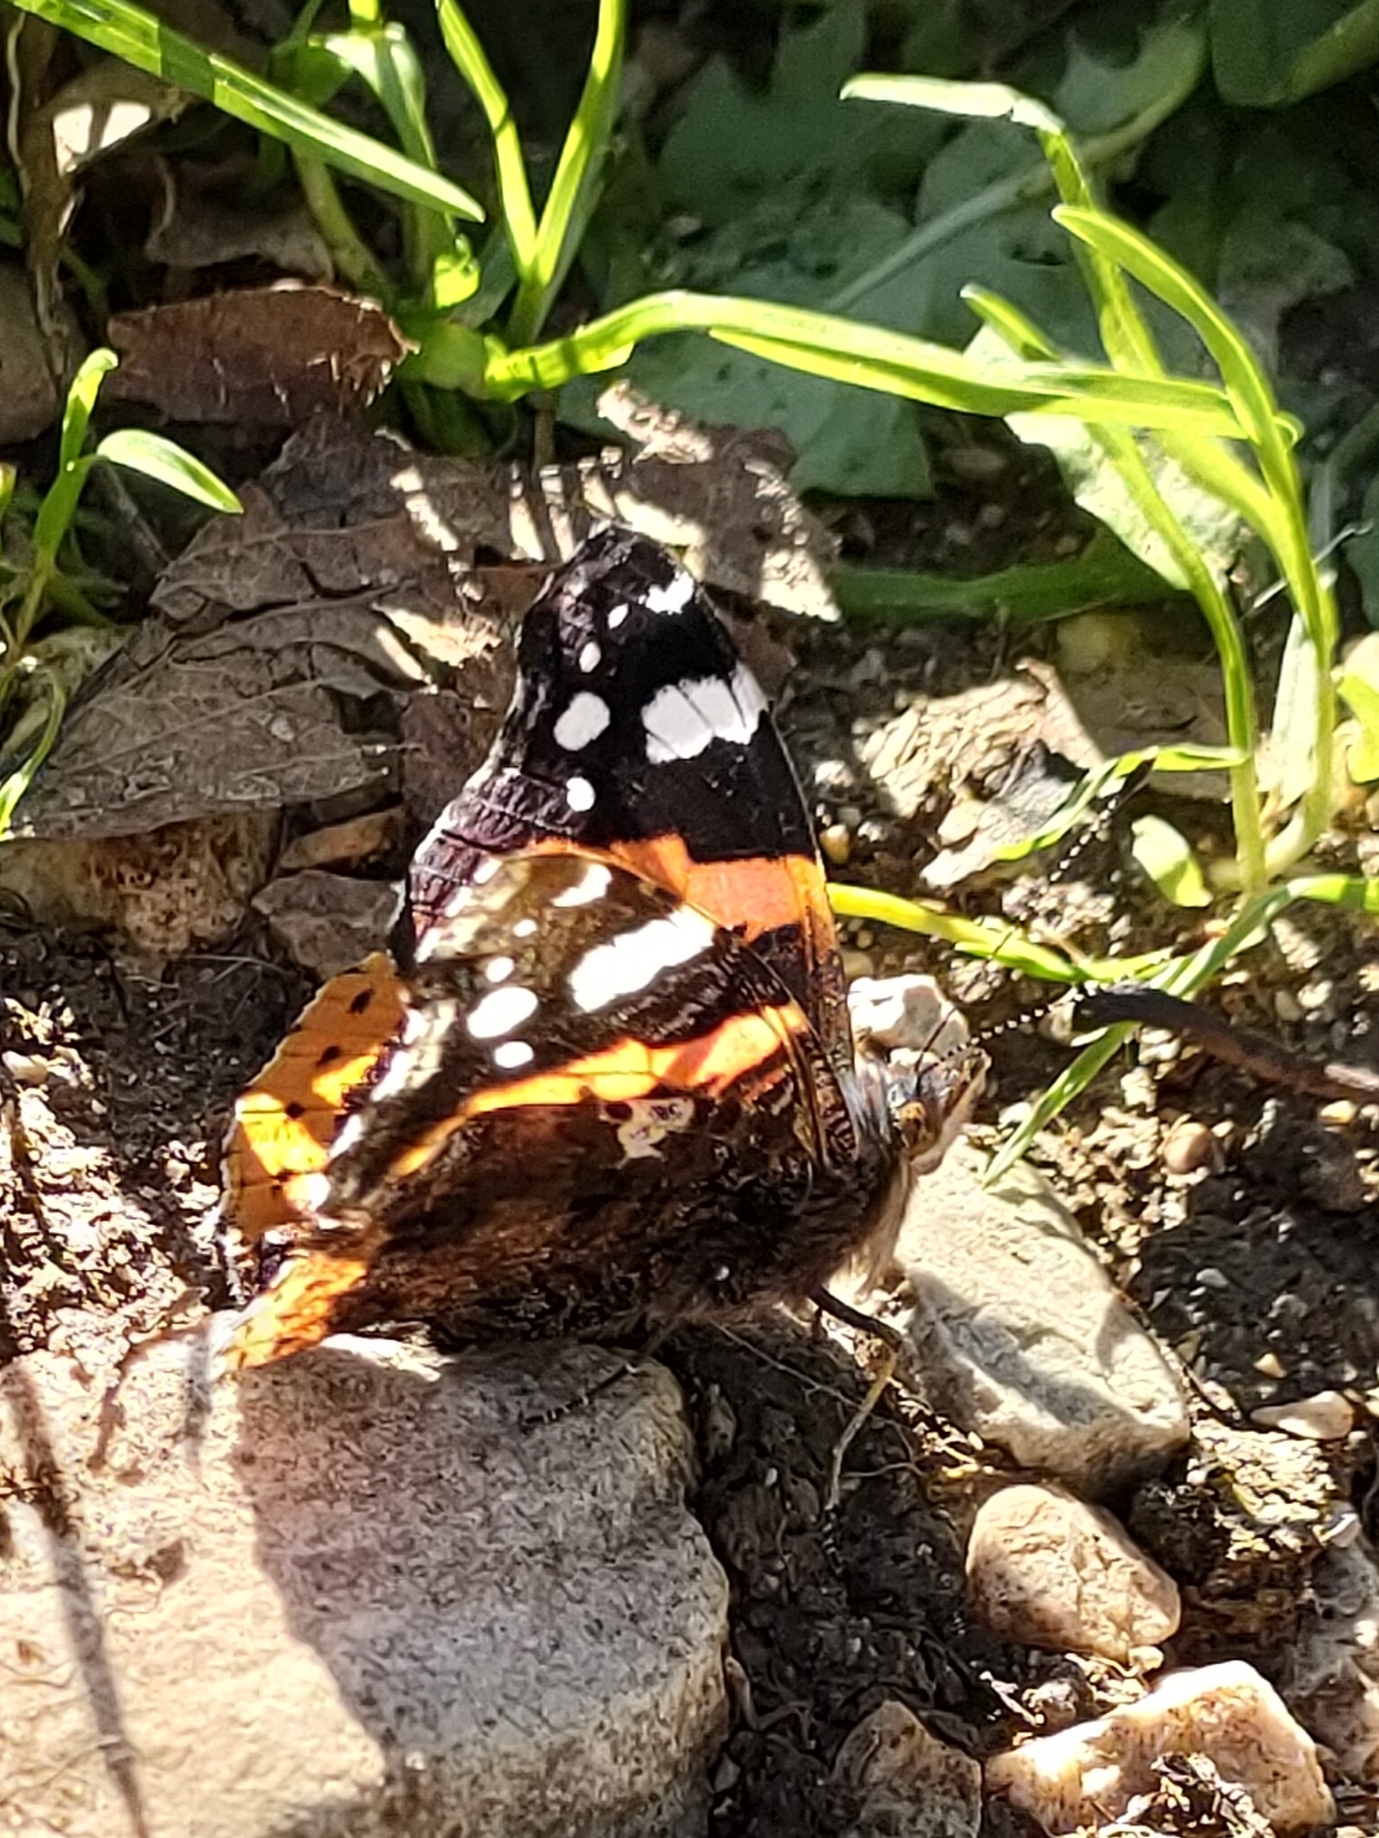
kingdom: Animalia
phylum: Arthropoda
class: Insecta
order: Lepidoptera
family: Nymphalidae
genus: Vanessa
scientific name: Vanessa atalanta
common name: Red admiral
